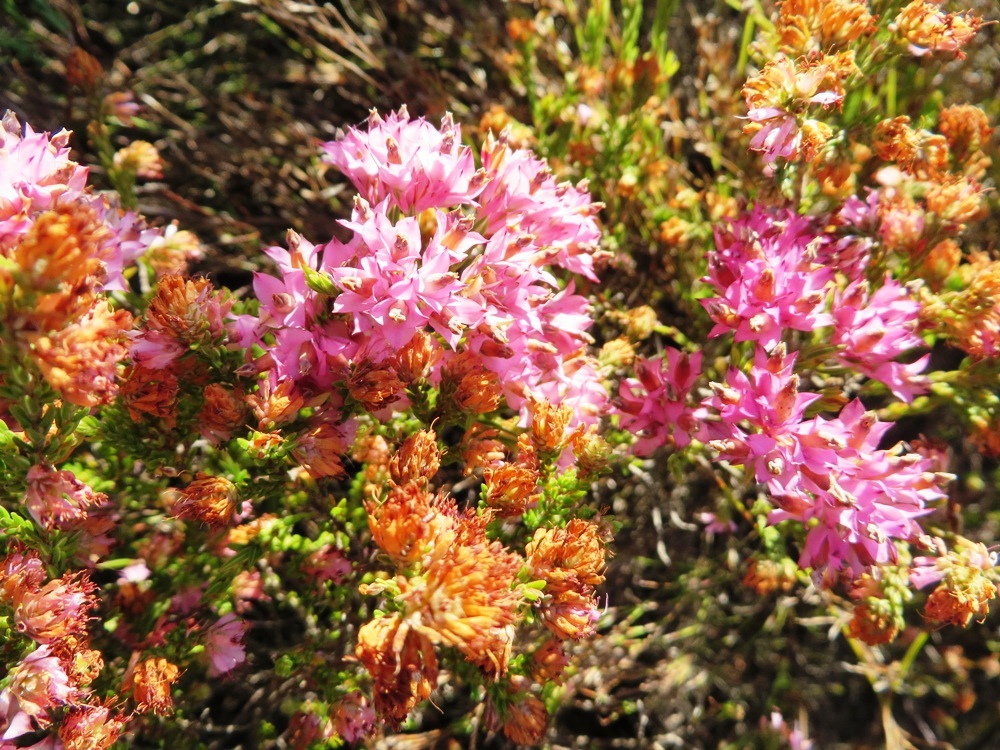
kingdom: Plantae
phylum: Tracheophyta
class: Magnoliopsida
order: Ericales
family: Ericaceae
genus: Erica
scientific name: Erica corifolia
